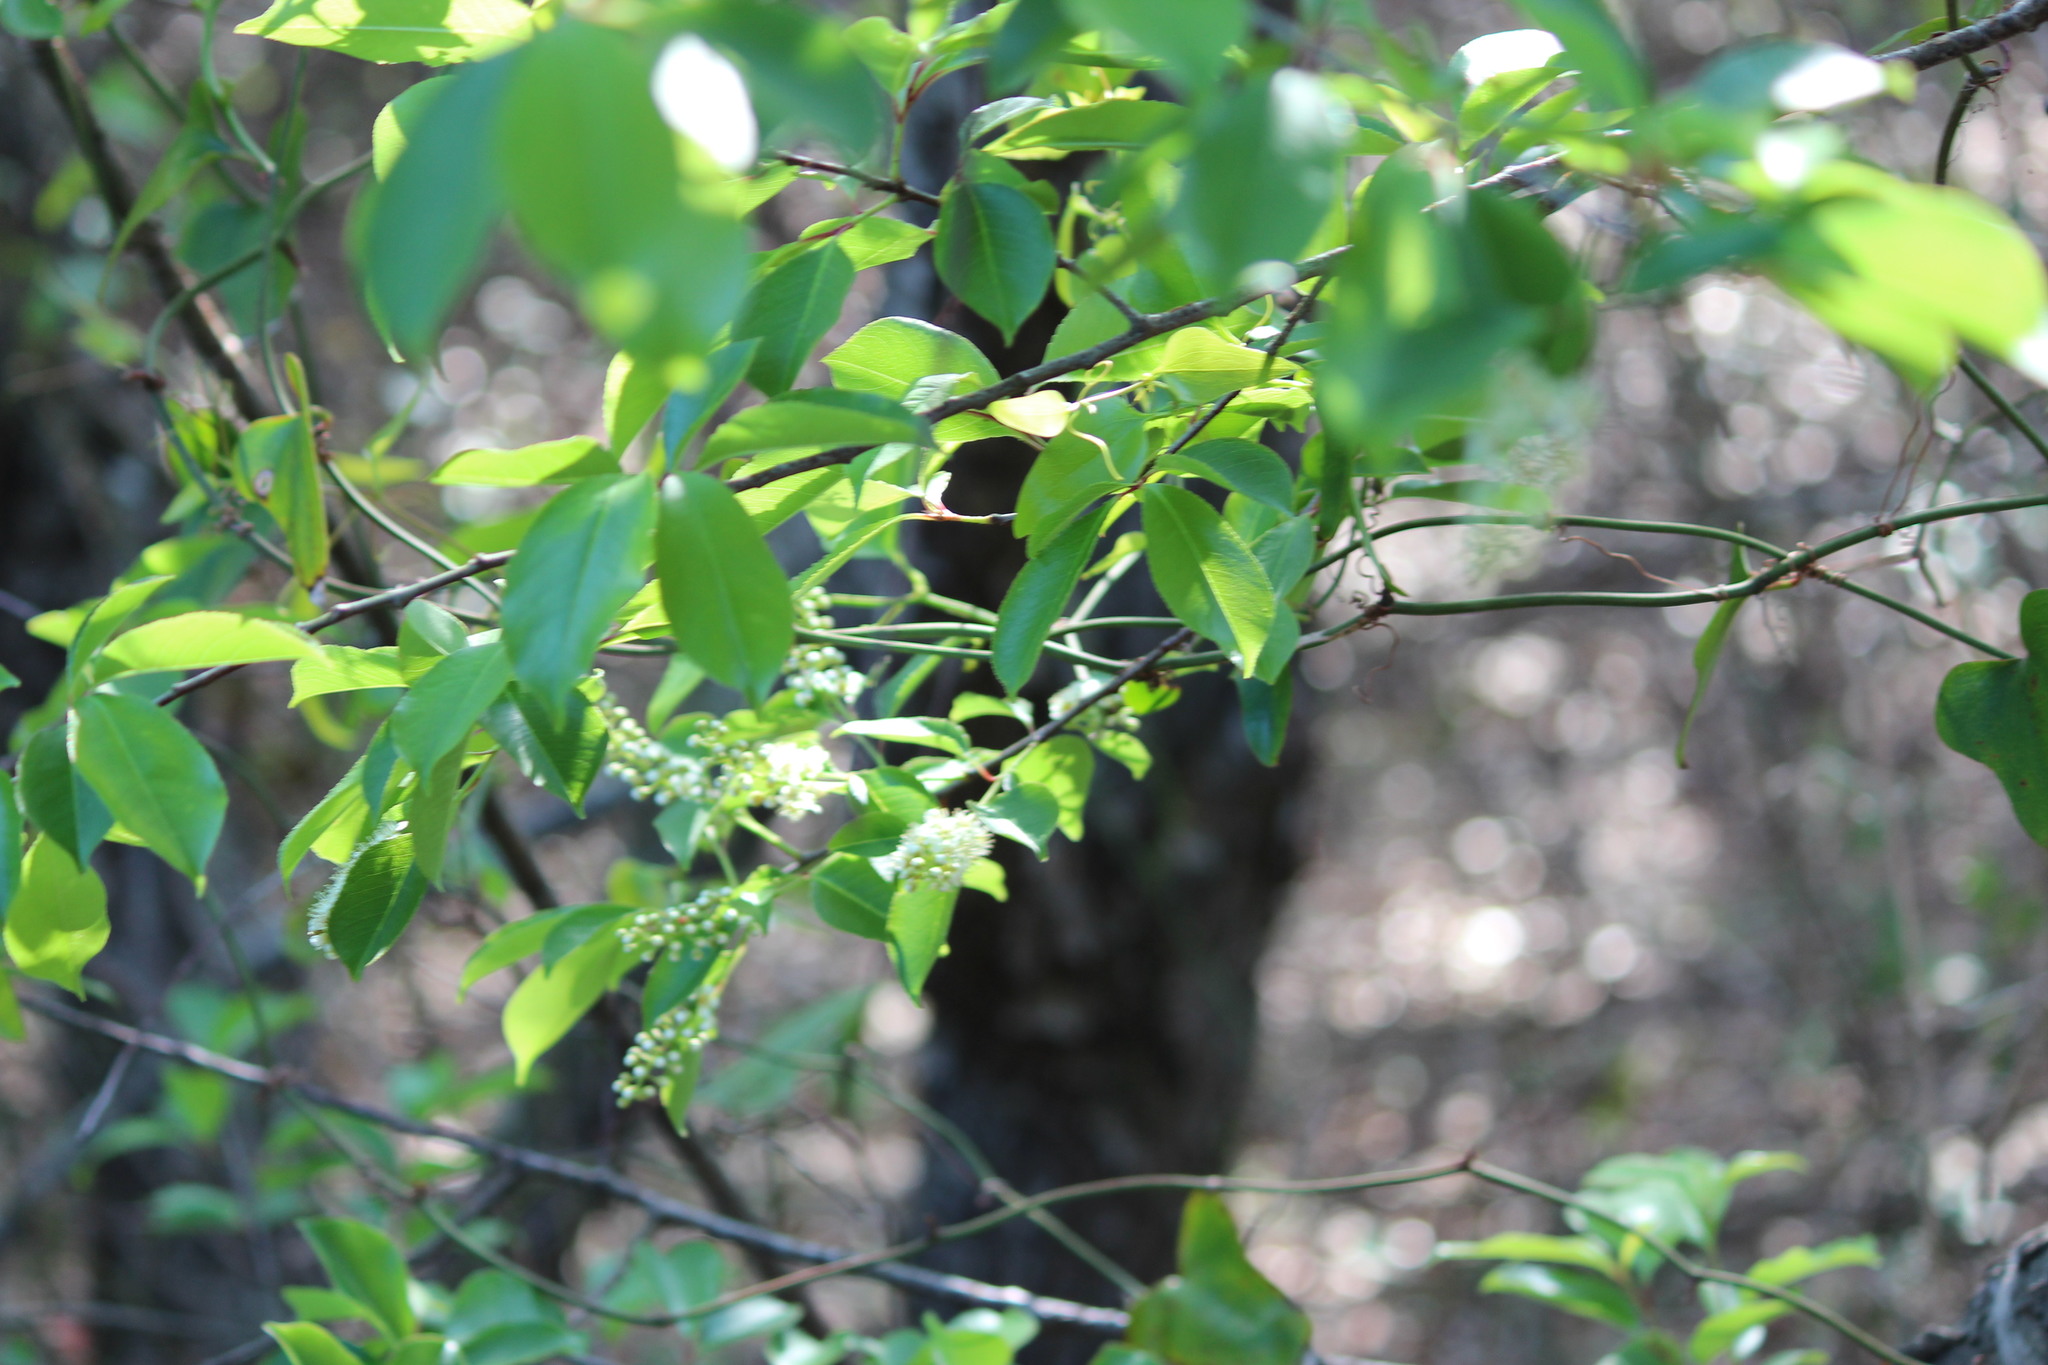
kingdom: Plantae
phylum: Tracheophyta
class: Magnoliopsida
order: Rosales
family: Rosaceae
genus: Prunus
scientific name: Prunus serotina
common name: Black cherry
